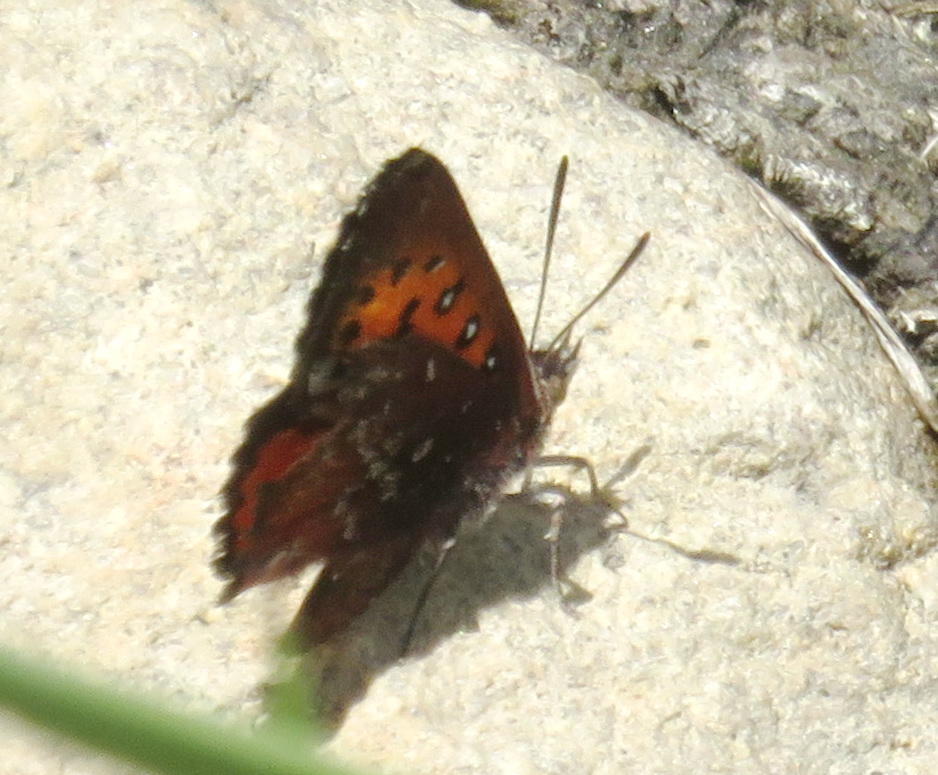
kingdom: Animalia
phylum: Arthropoda
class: Insecta
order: Lepidoptera
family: Lycaenidae
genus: Aloeides
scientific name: Aloeides quickelbergei
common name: Quickelberge's copper
